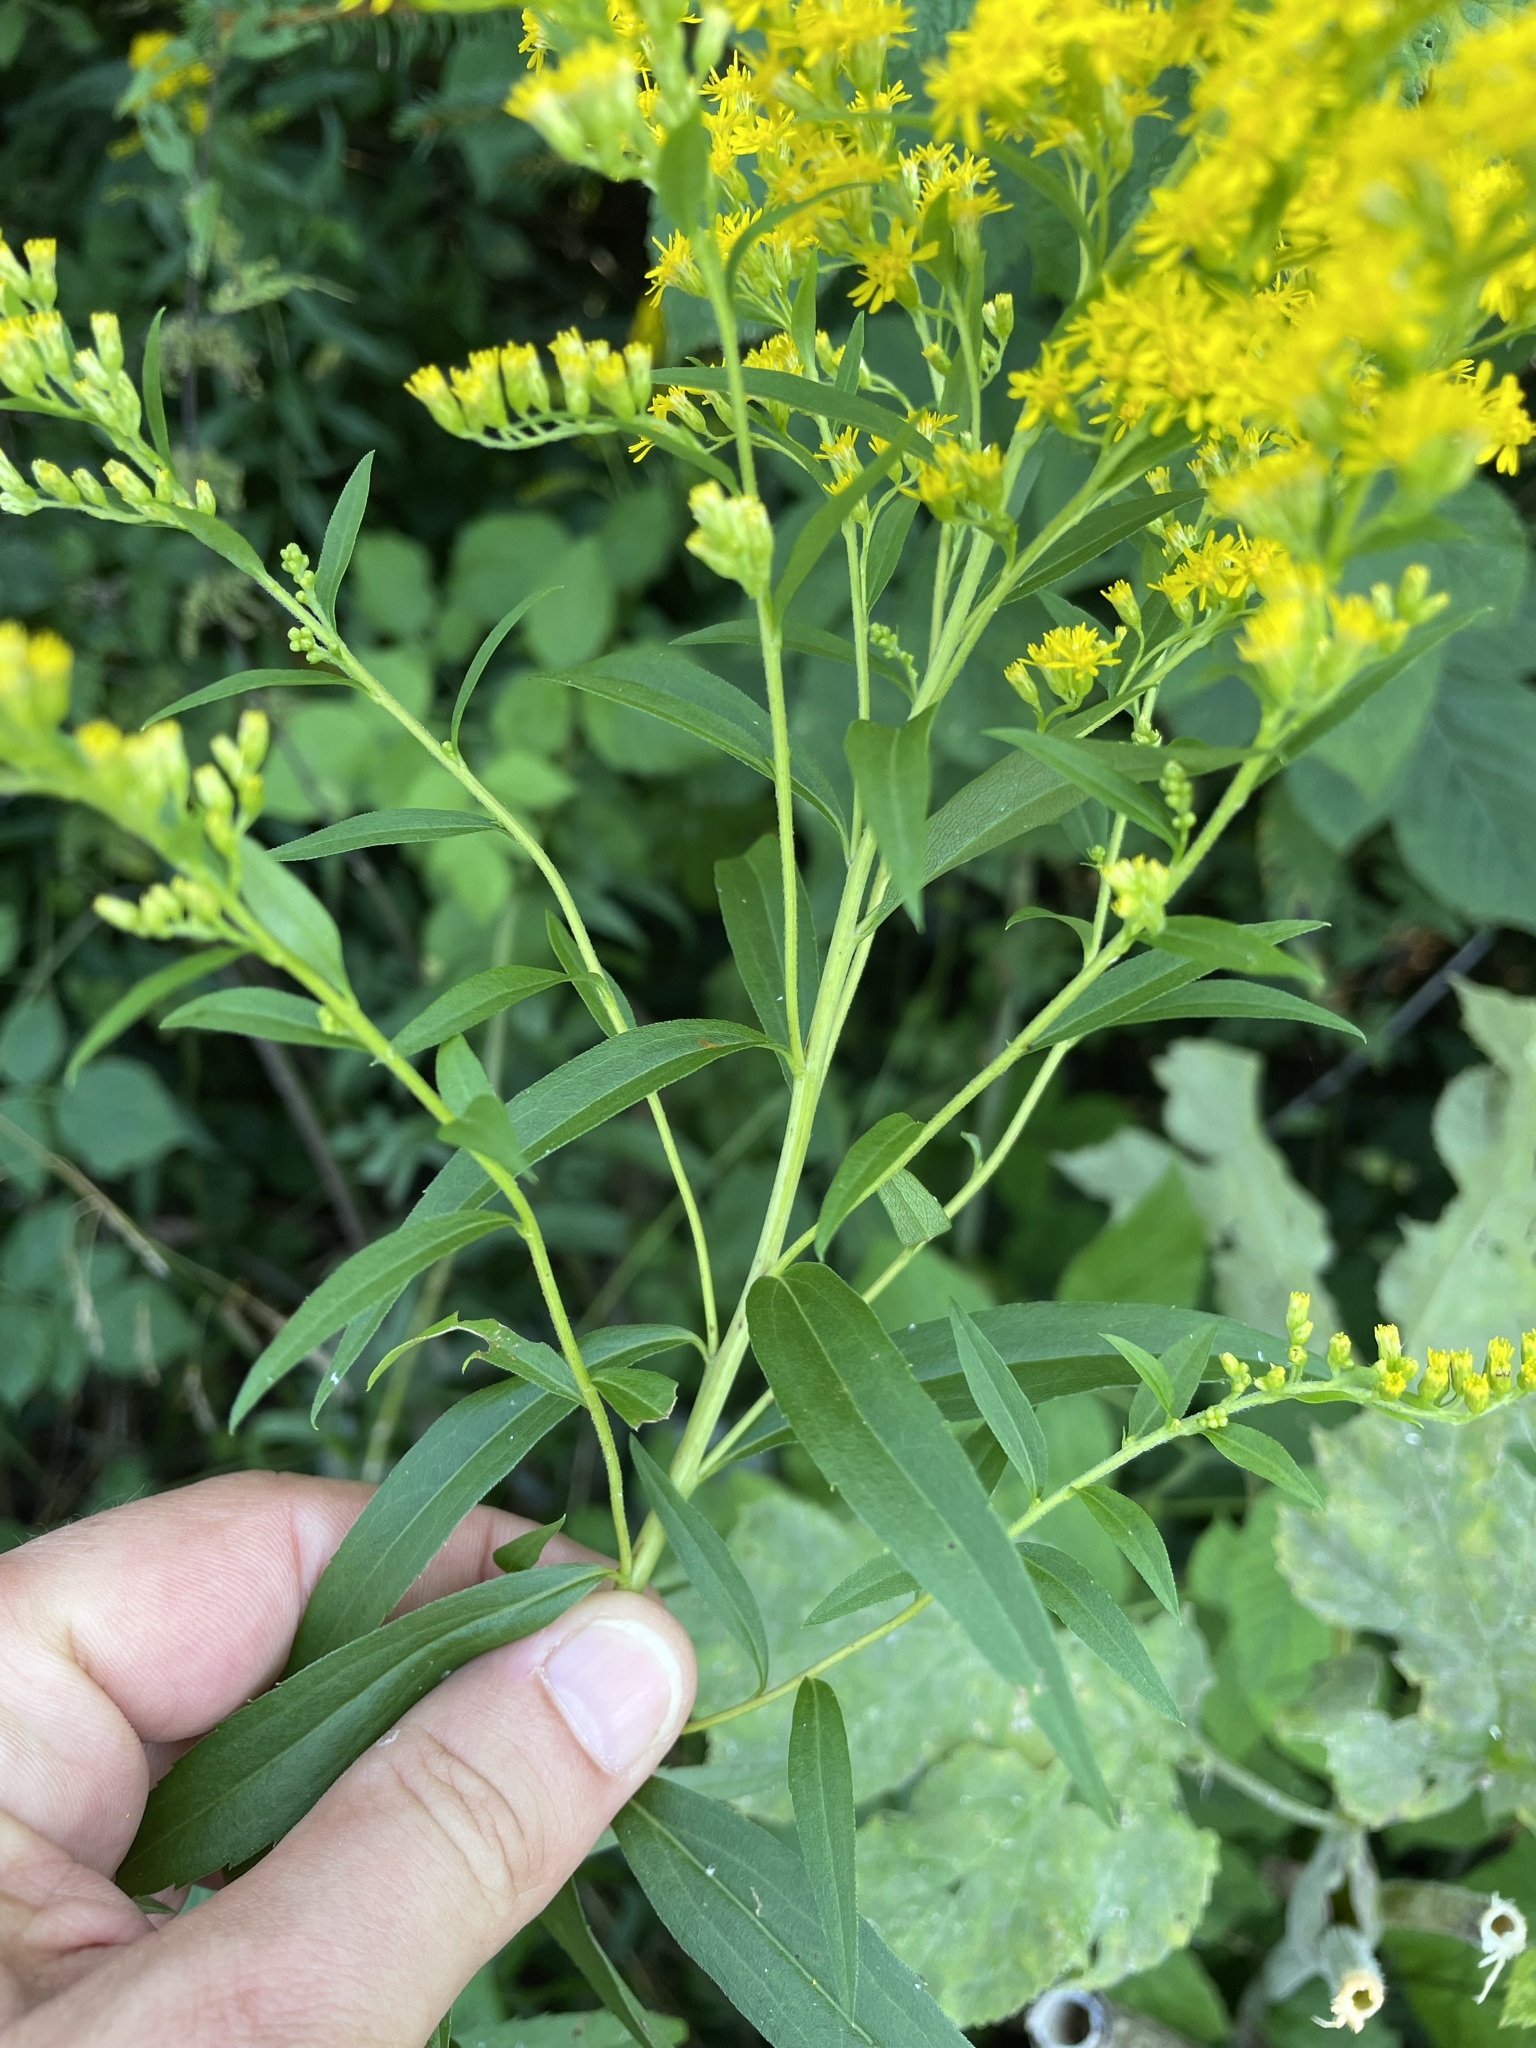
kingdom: Plantae
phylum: Tracheophyta
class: Magnoliopsida
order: Asterales
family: Asteraceae
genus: Solidago
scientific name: Solidago gigantea
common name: Giant goldenrod
